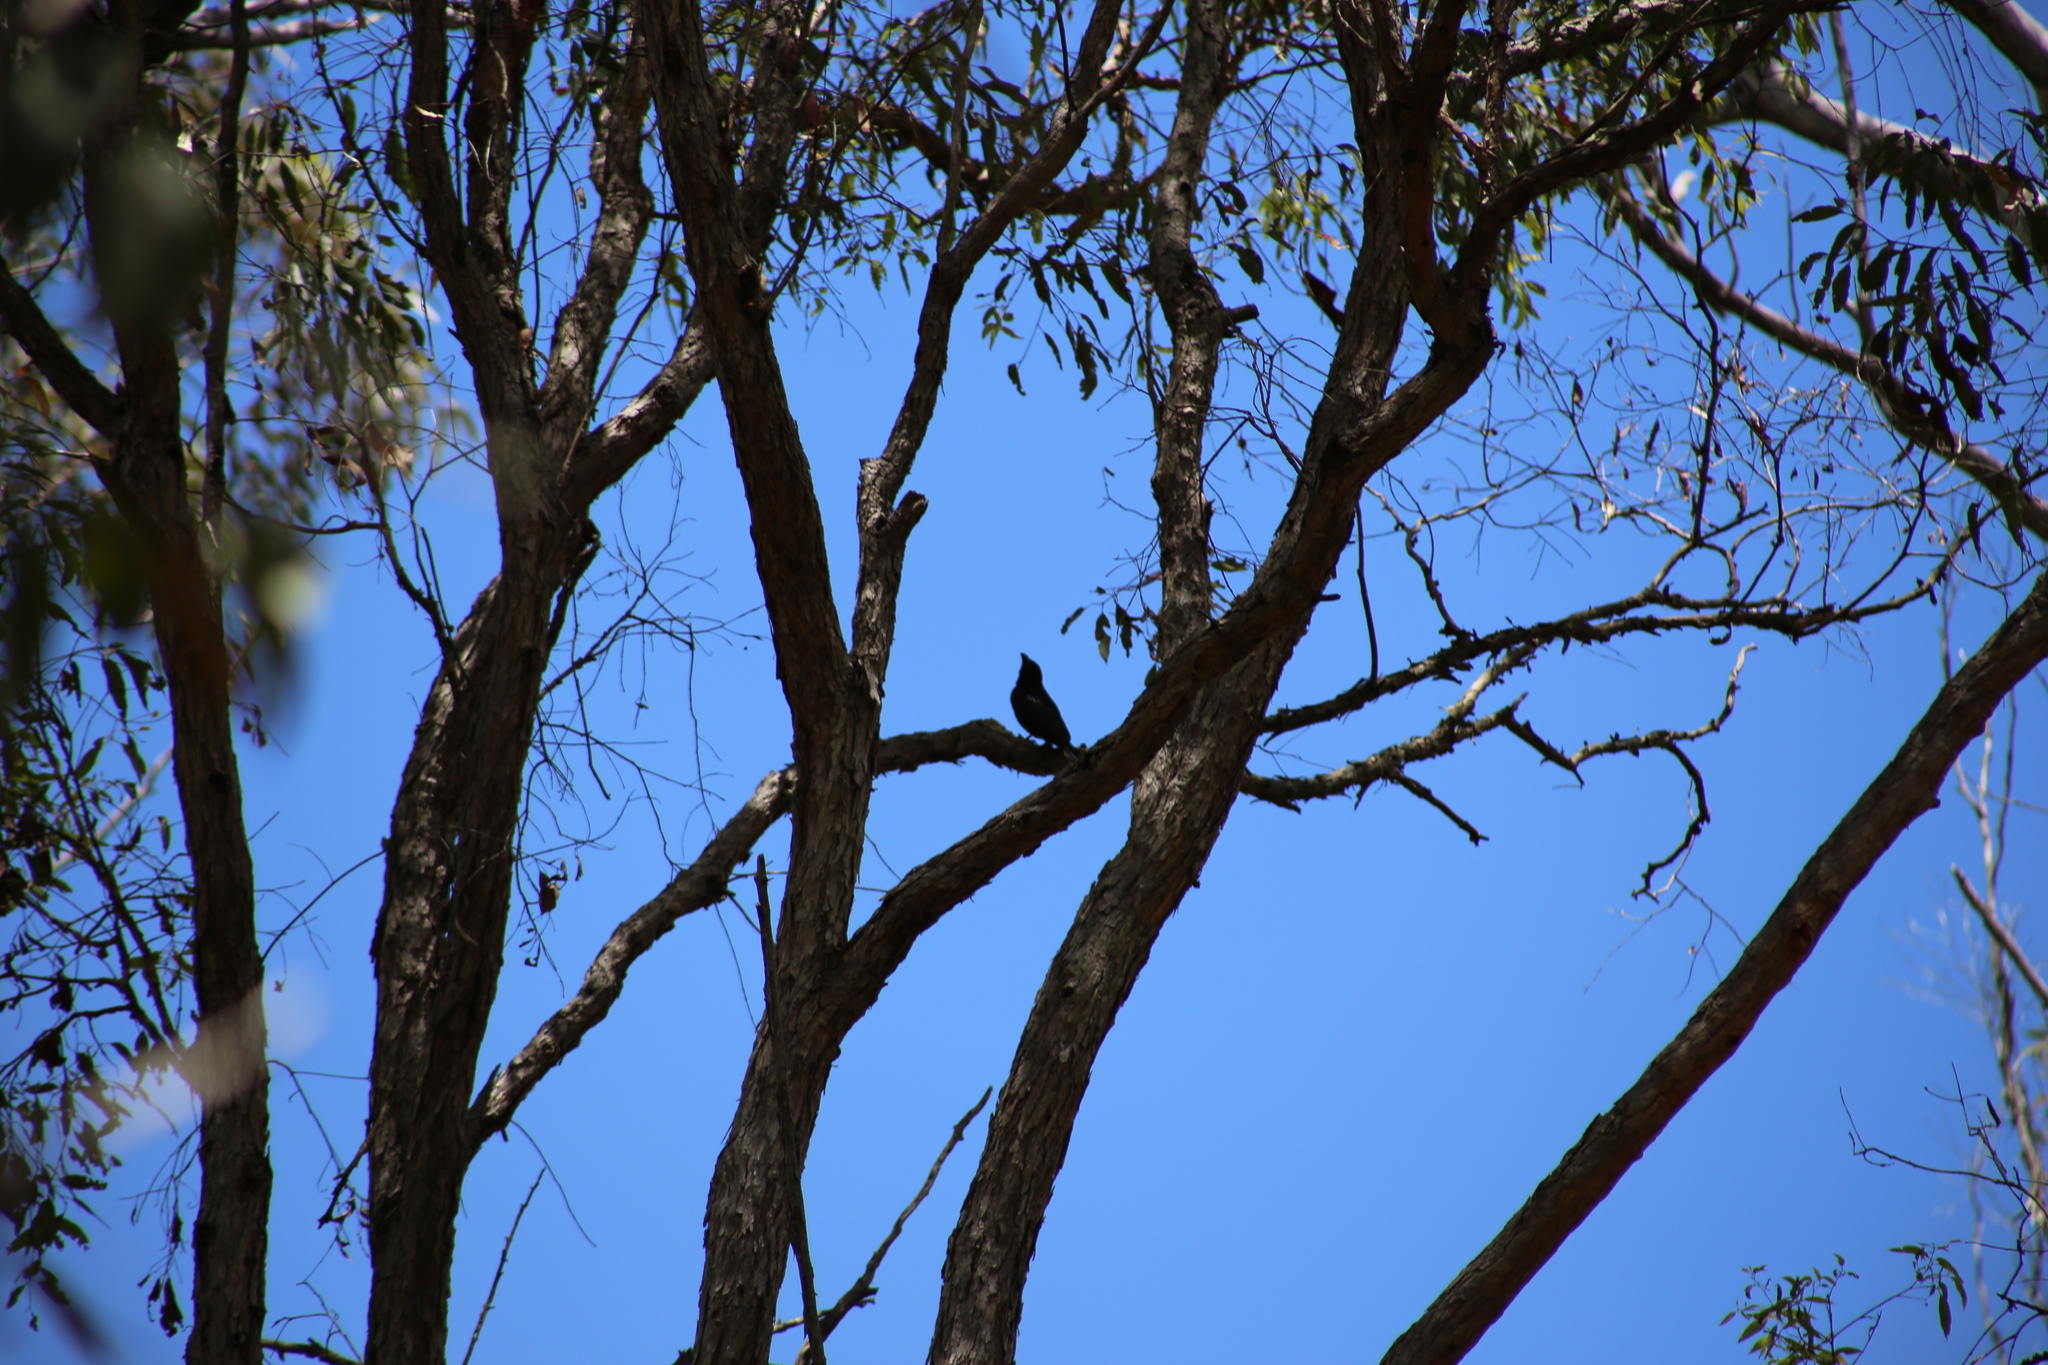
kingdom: Animalia
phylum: Chordata
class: Aves
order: Passeriformes
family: Dicruridae
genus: Dicrurus
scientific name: Dicrurus bracteatus
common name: Spangled drongo
